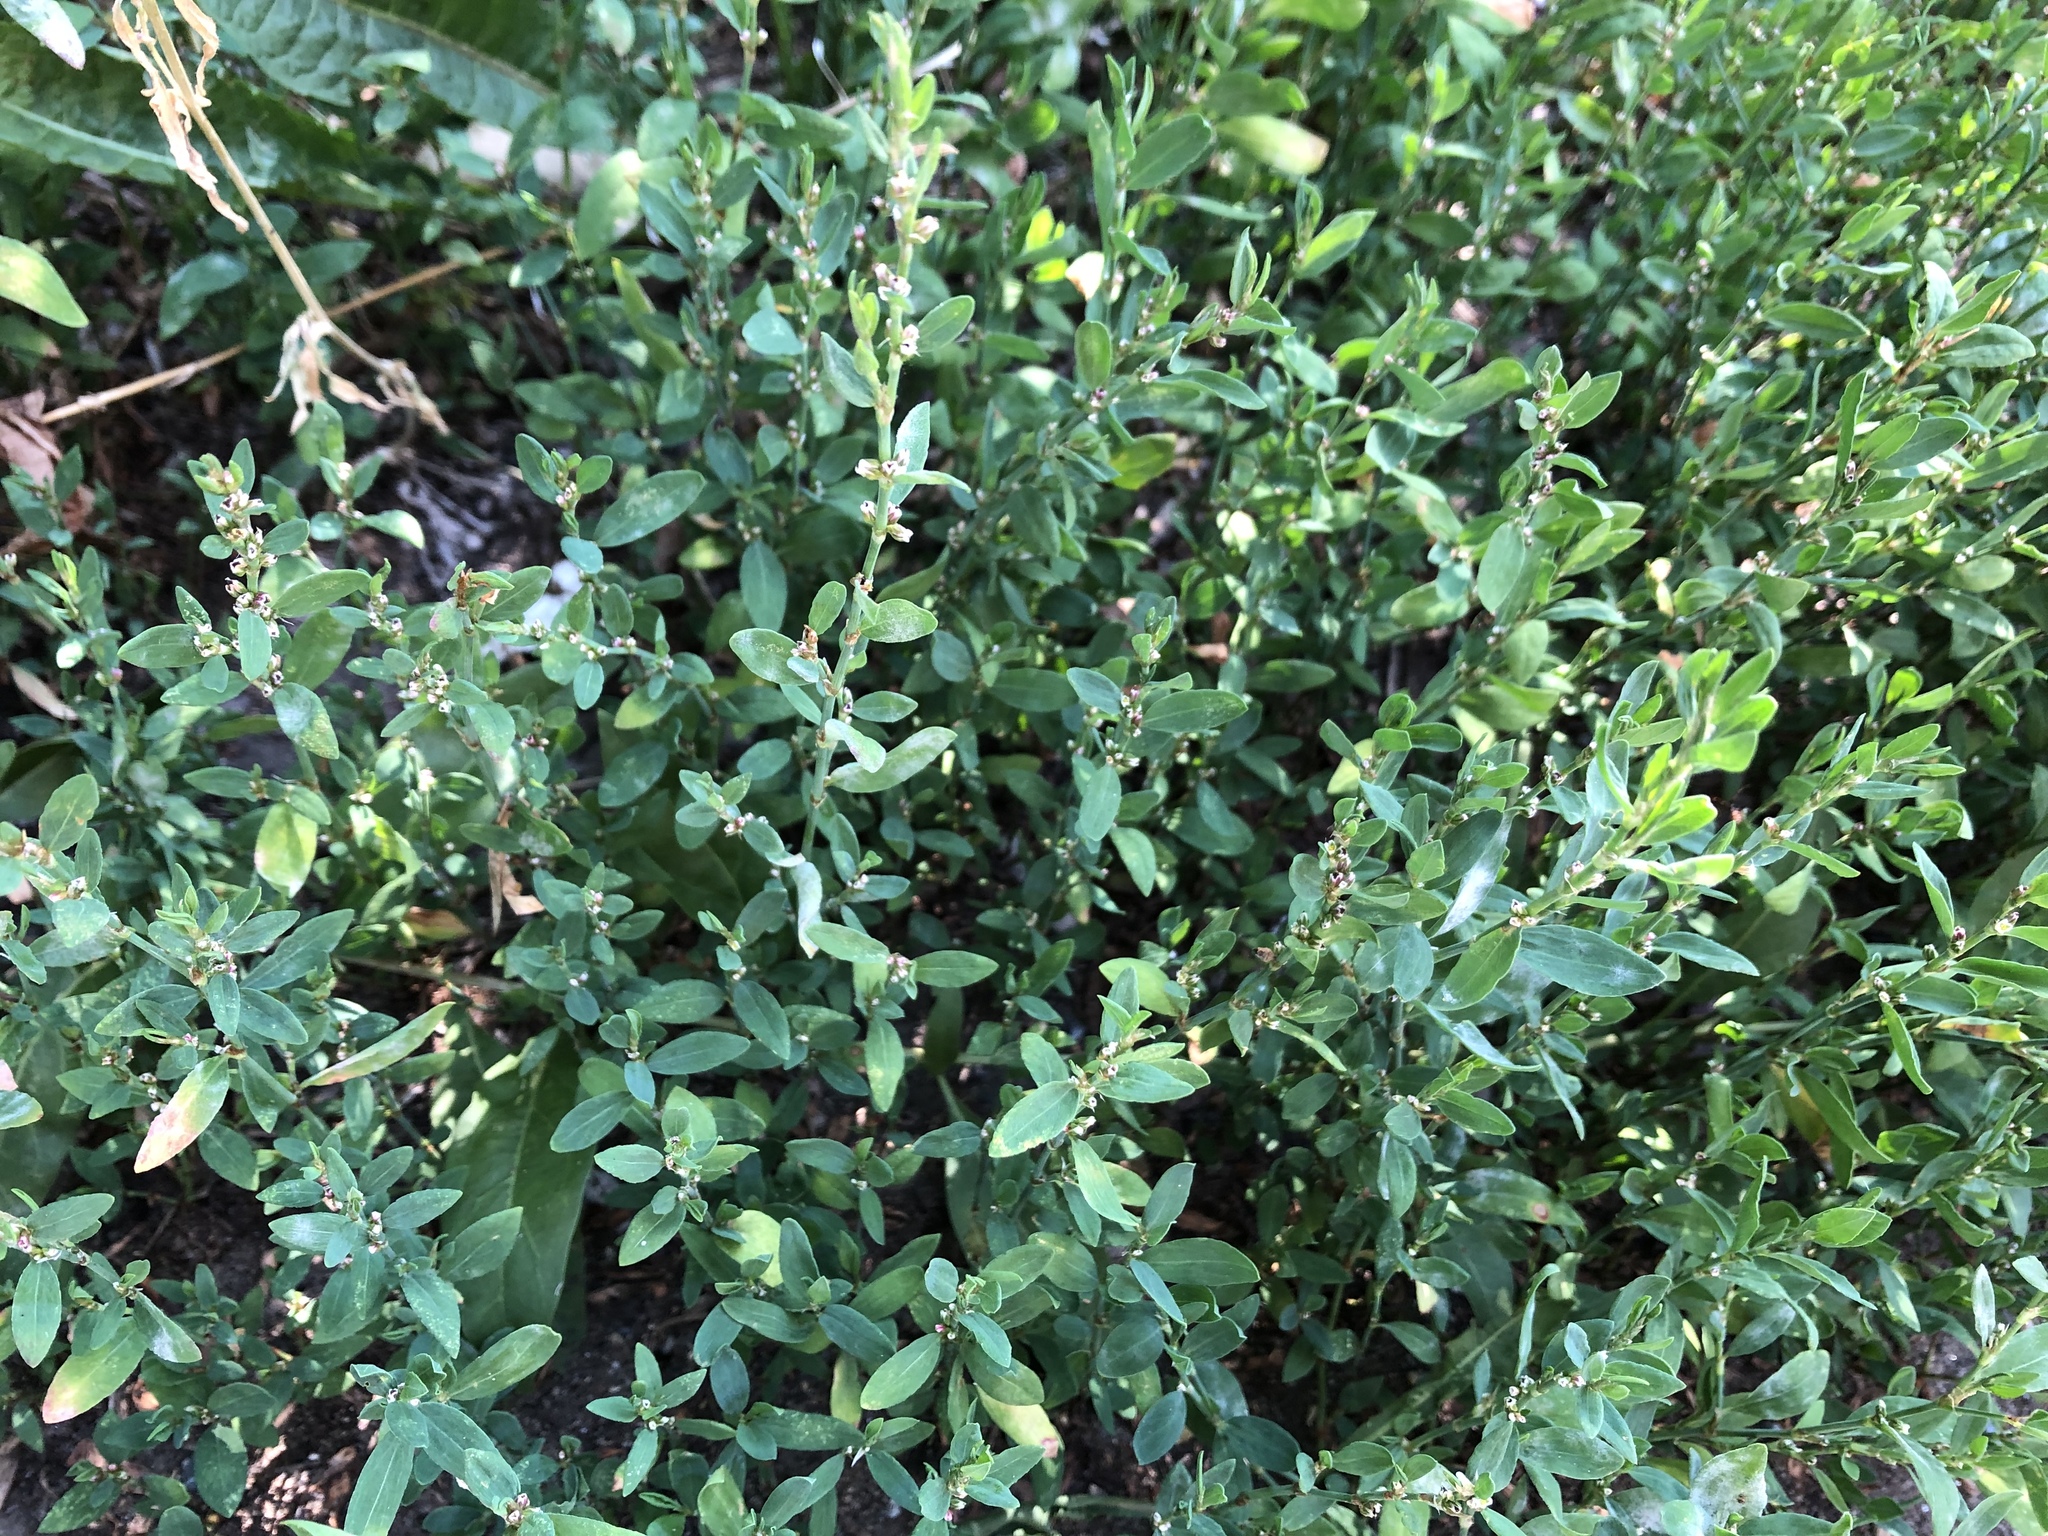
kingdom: Plantae
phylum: Tracheophyta
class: Magnoliopsida
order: Caryophyllales
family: Polygonaceae
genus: Polygonum
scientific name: Polygonum aviculare
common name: Prostrate knotweed
